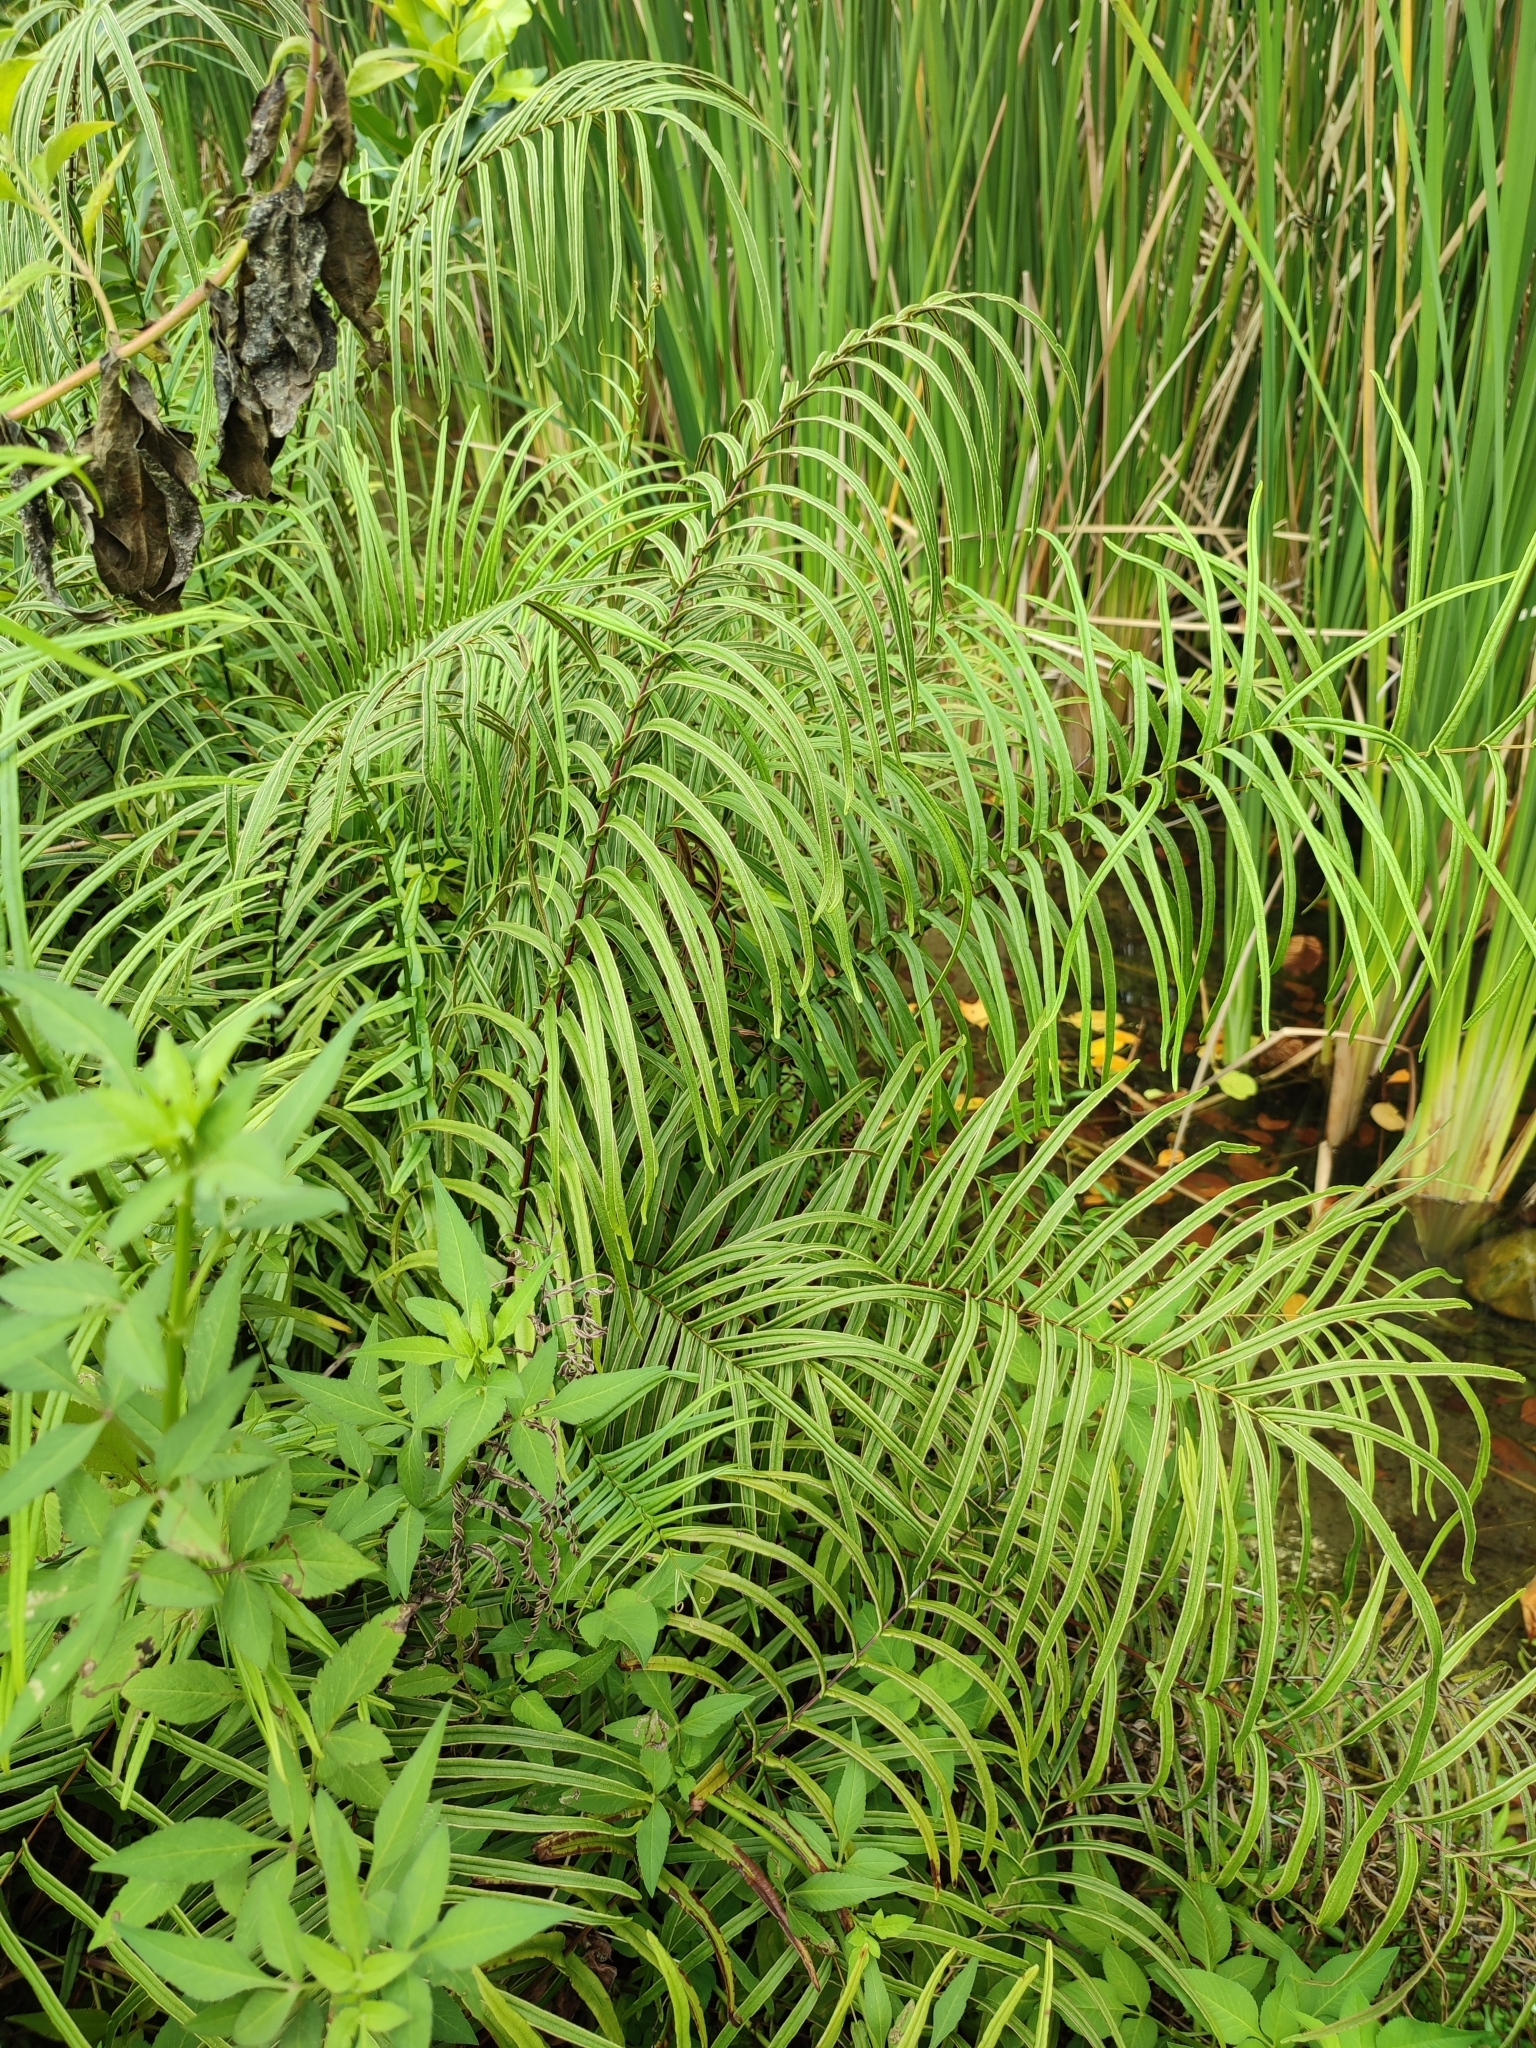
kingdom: Plantae
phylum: Tracheophyta
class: Polypodiopsida
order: Polypodiales
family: Pteridaceae
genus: Pteris
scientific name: Pteris vittata
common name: Ladder brake
